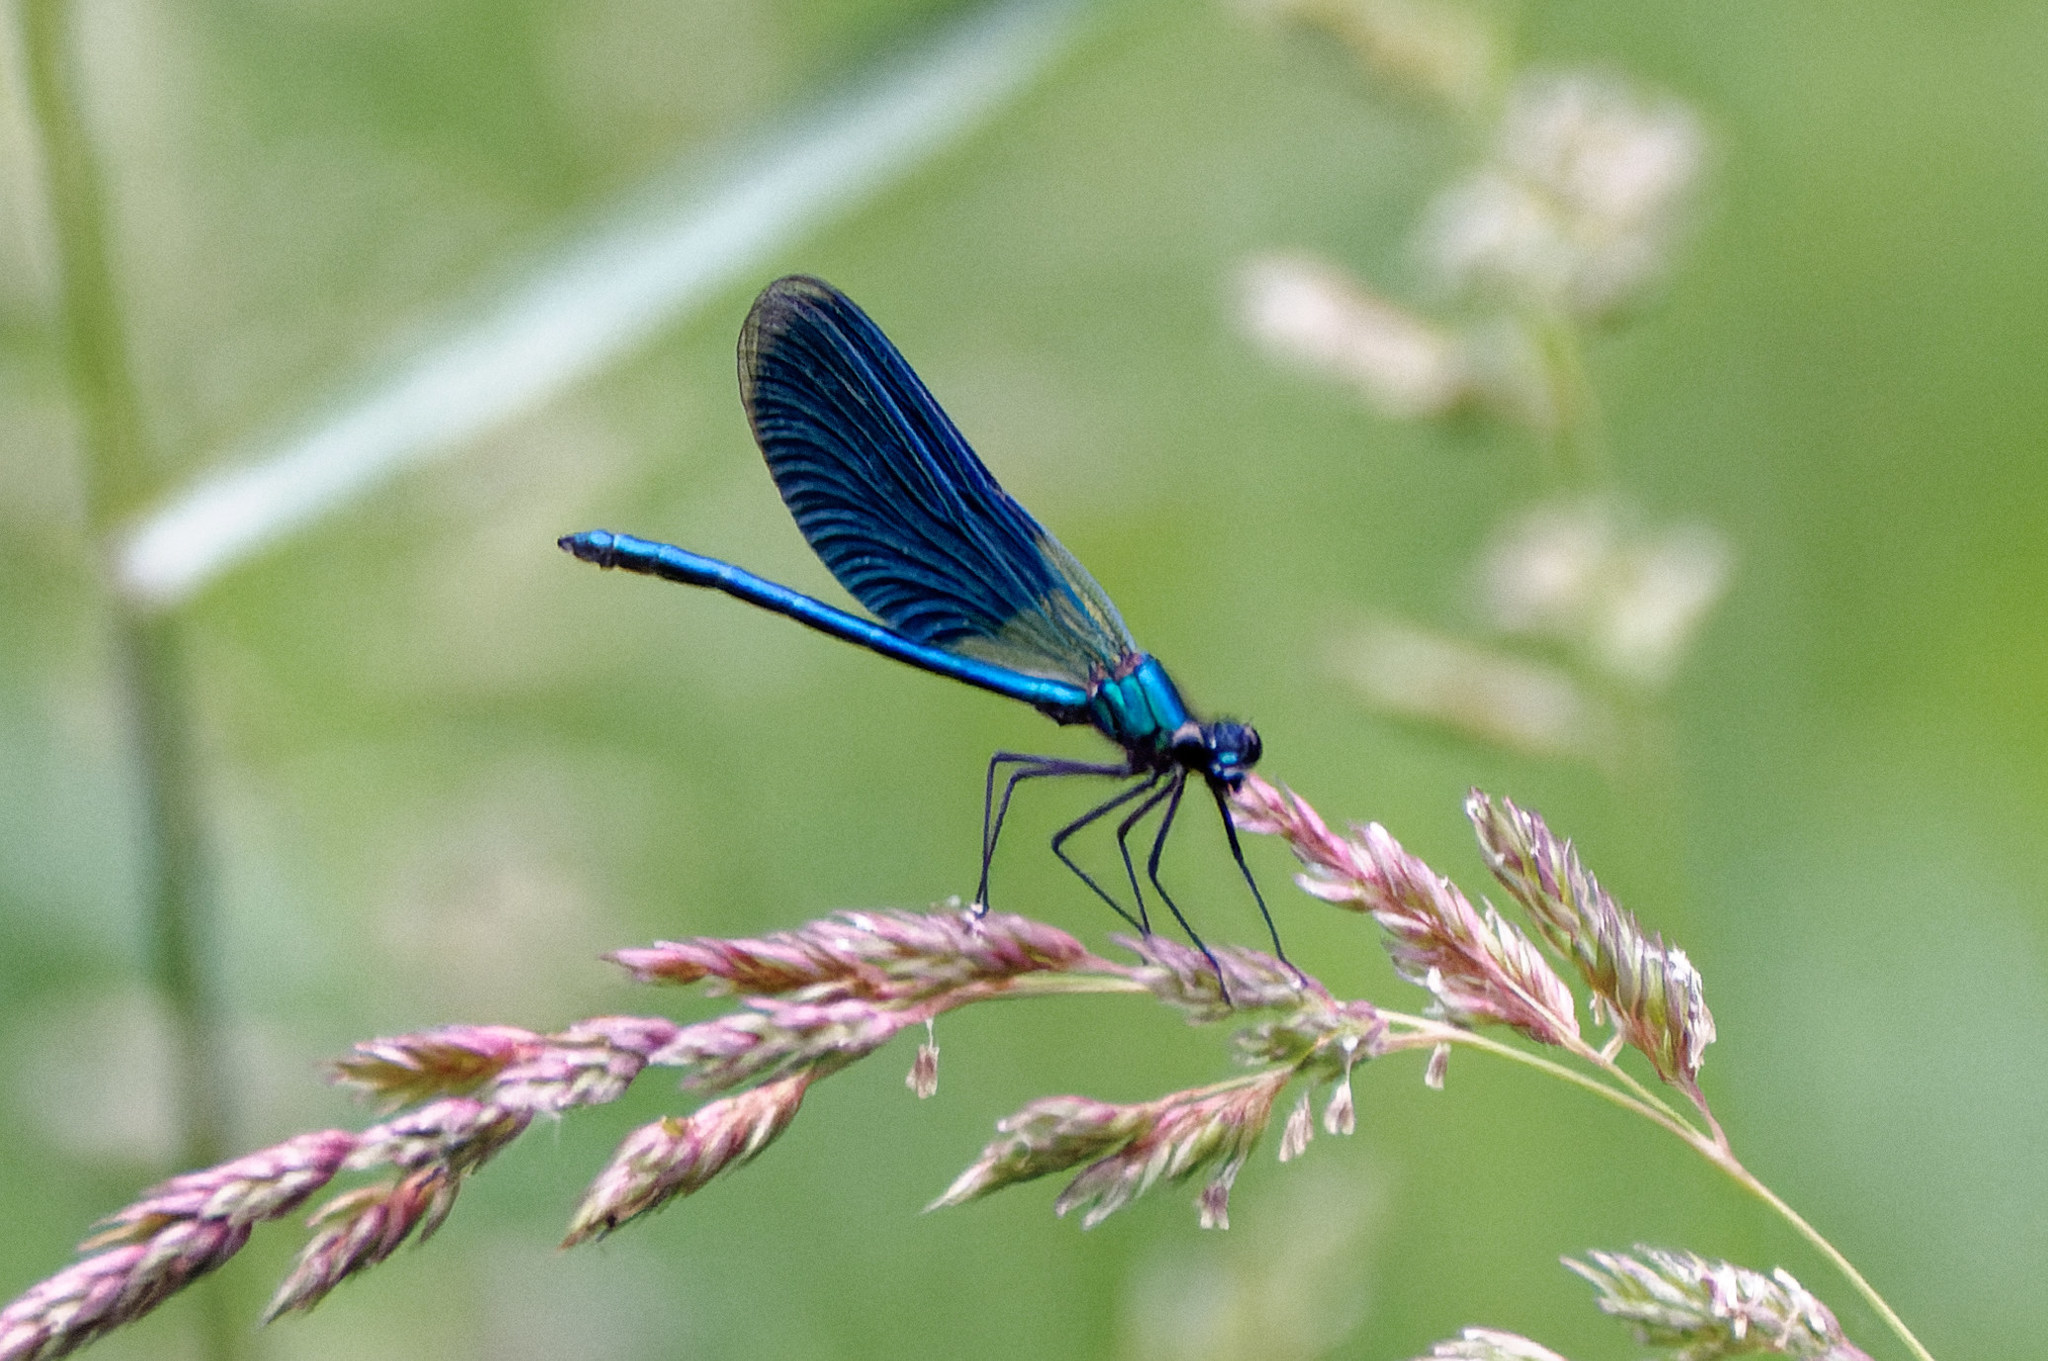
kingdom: Animalia
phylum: Arthropoda
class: Insecta
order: Odonata
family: Calopterygidae
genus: Calopteryx
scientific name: Calopteryx splendens
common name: Banded demoiselle
